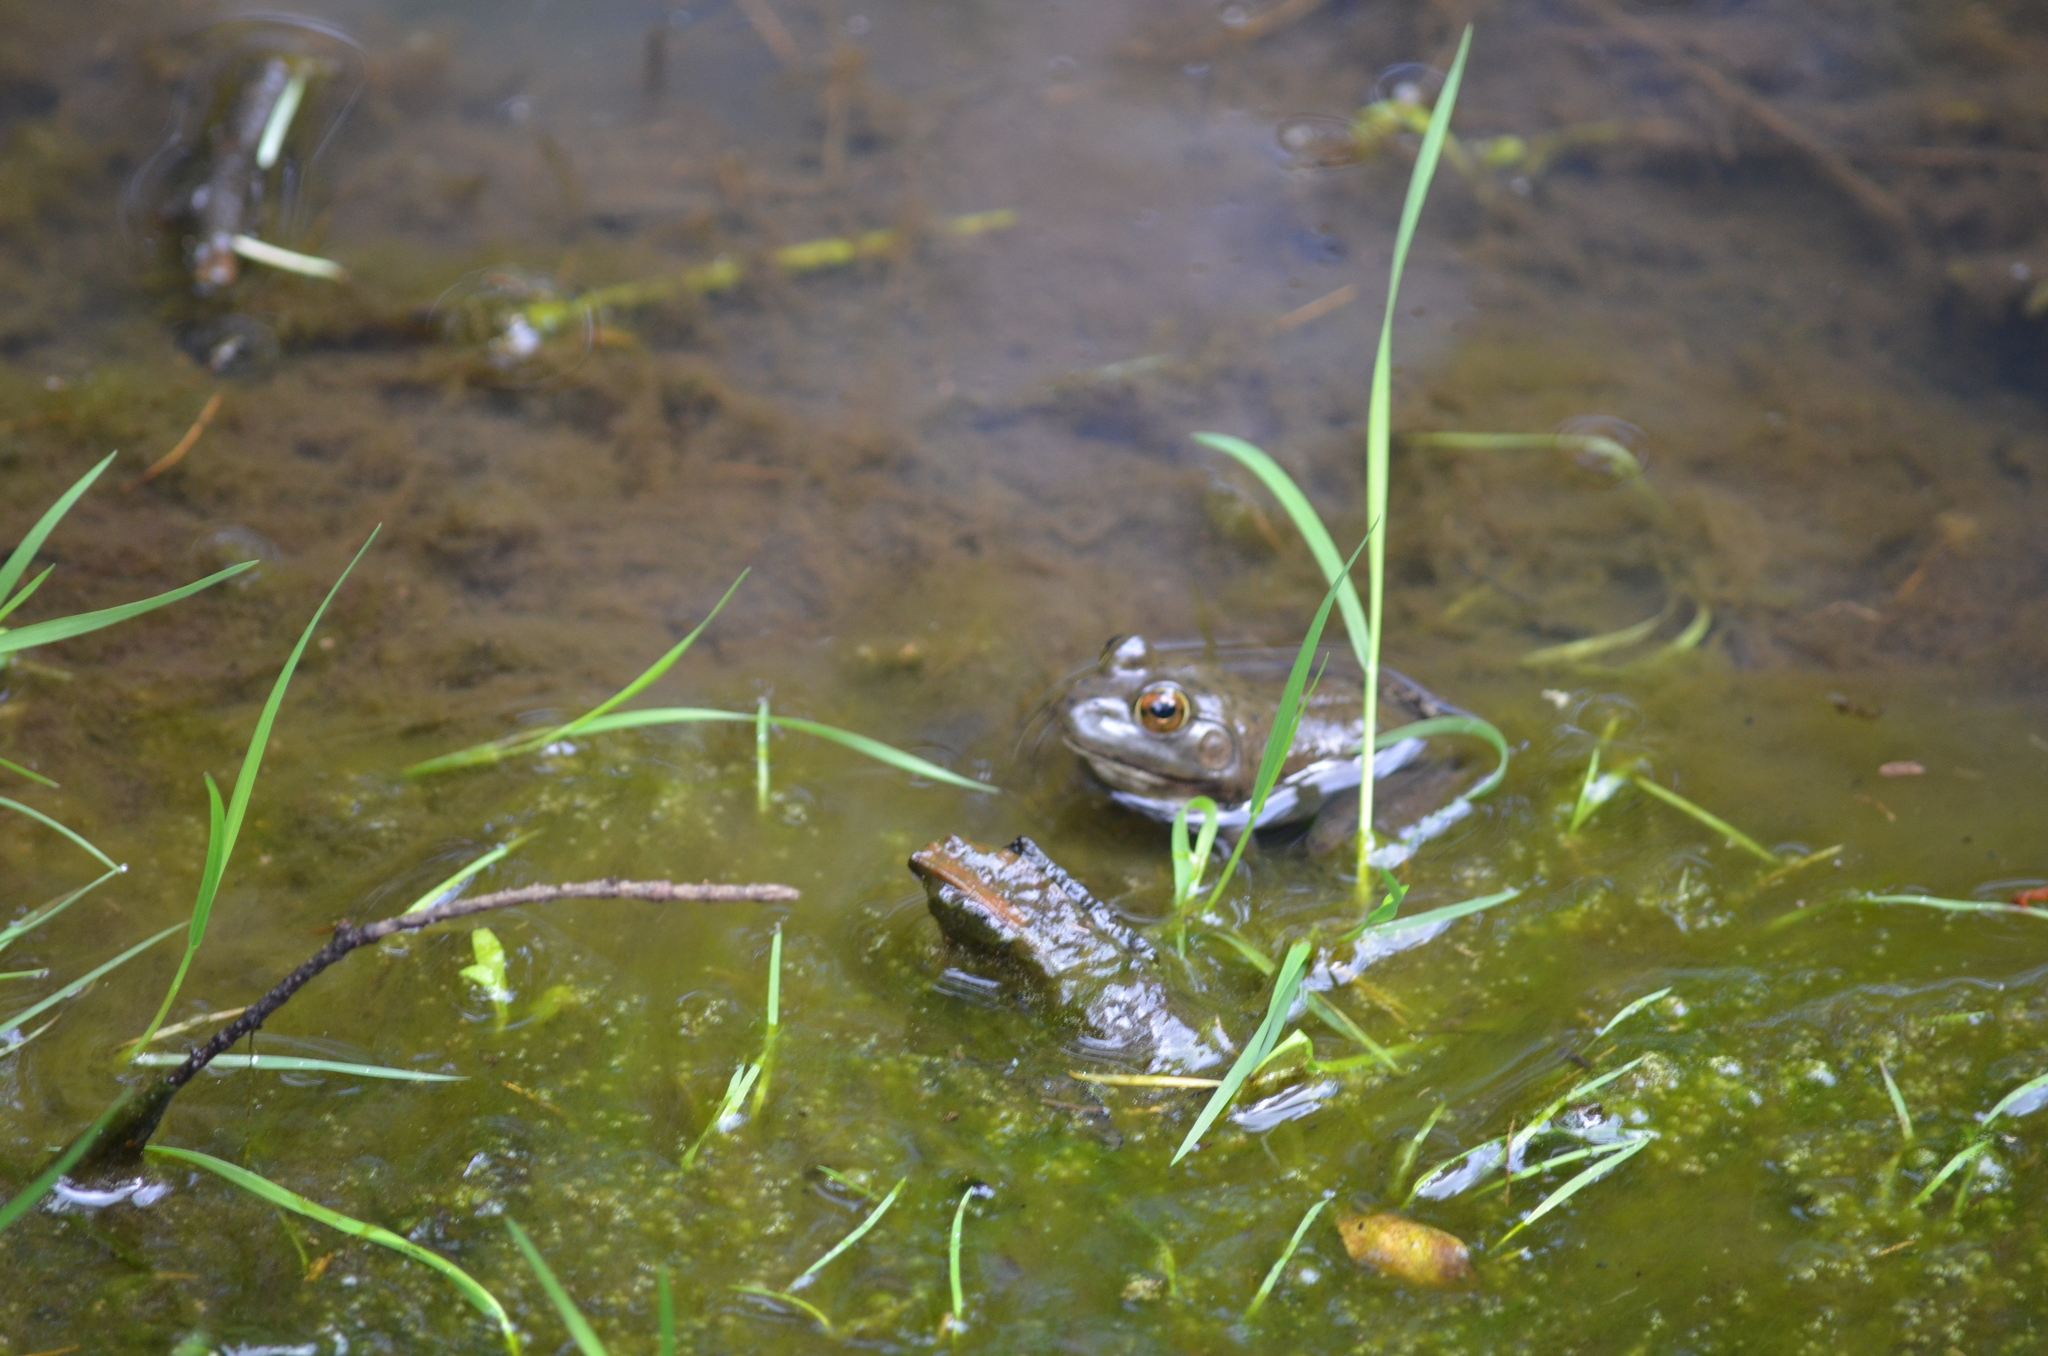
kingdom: Animalia
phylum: Chordata
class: Amphibia
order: Anura
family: Ranidae
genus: Lithobates
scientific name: Lithobates catesbeianus
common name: American bullfrog
